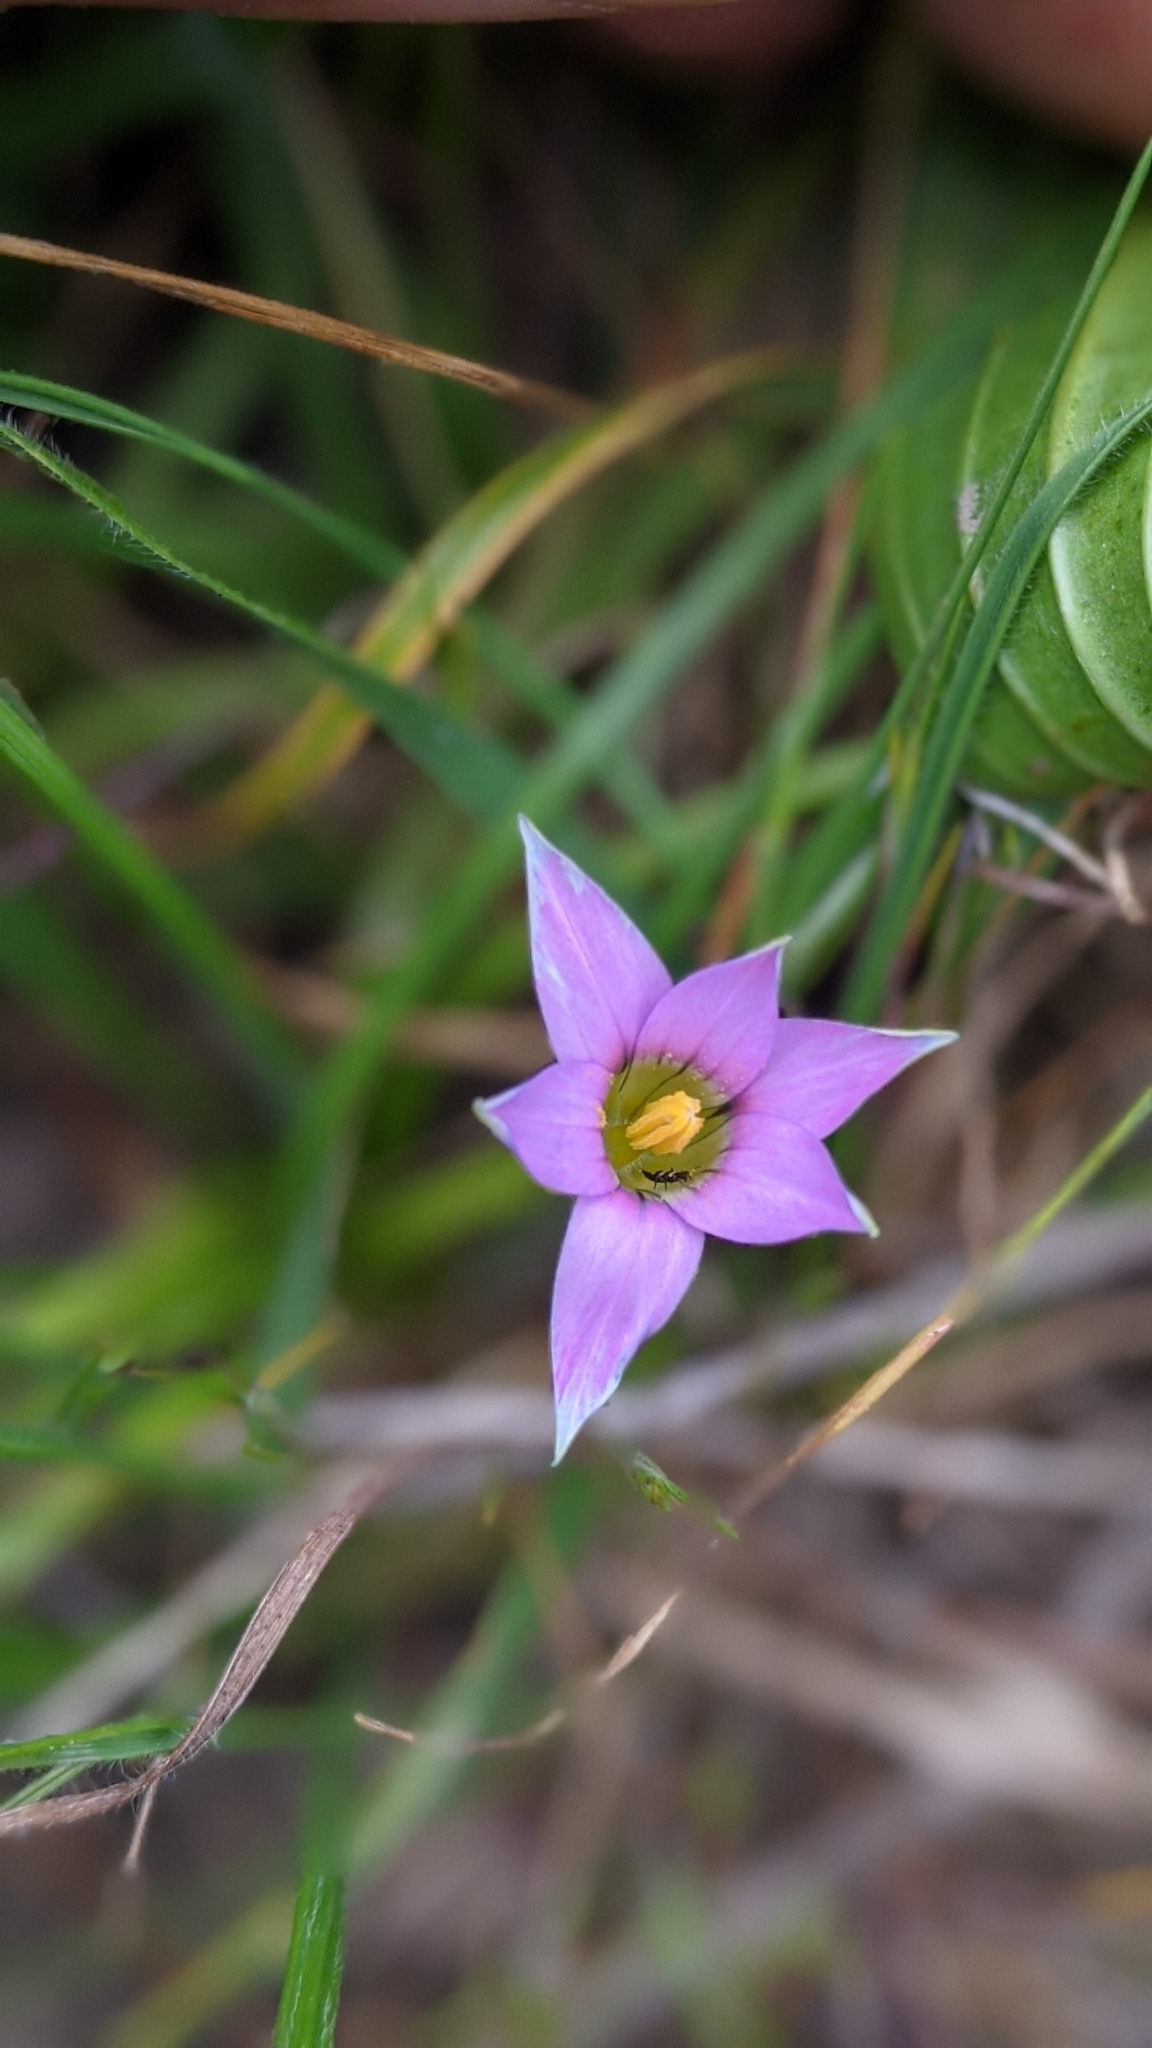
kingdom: Plantae
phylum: Tracheophyta
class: Liliopsida
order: Asparagales
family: Iridaceae
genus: Romulea
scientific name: Romulea rosea
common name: Oniongrass
